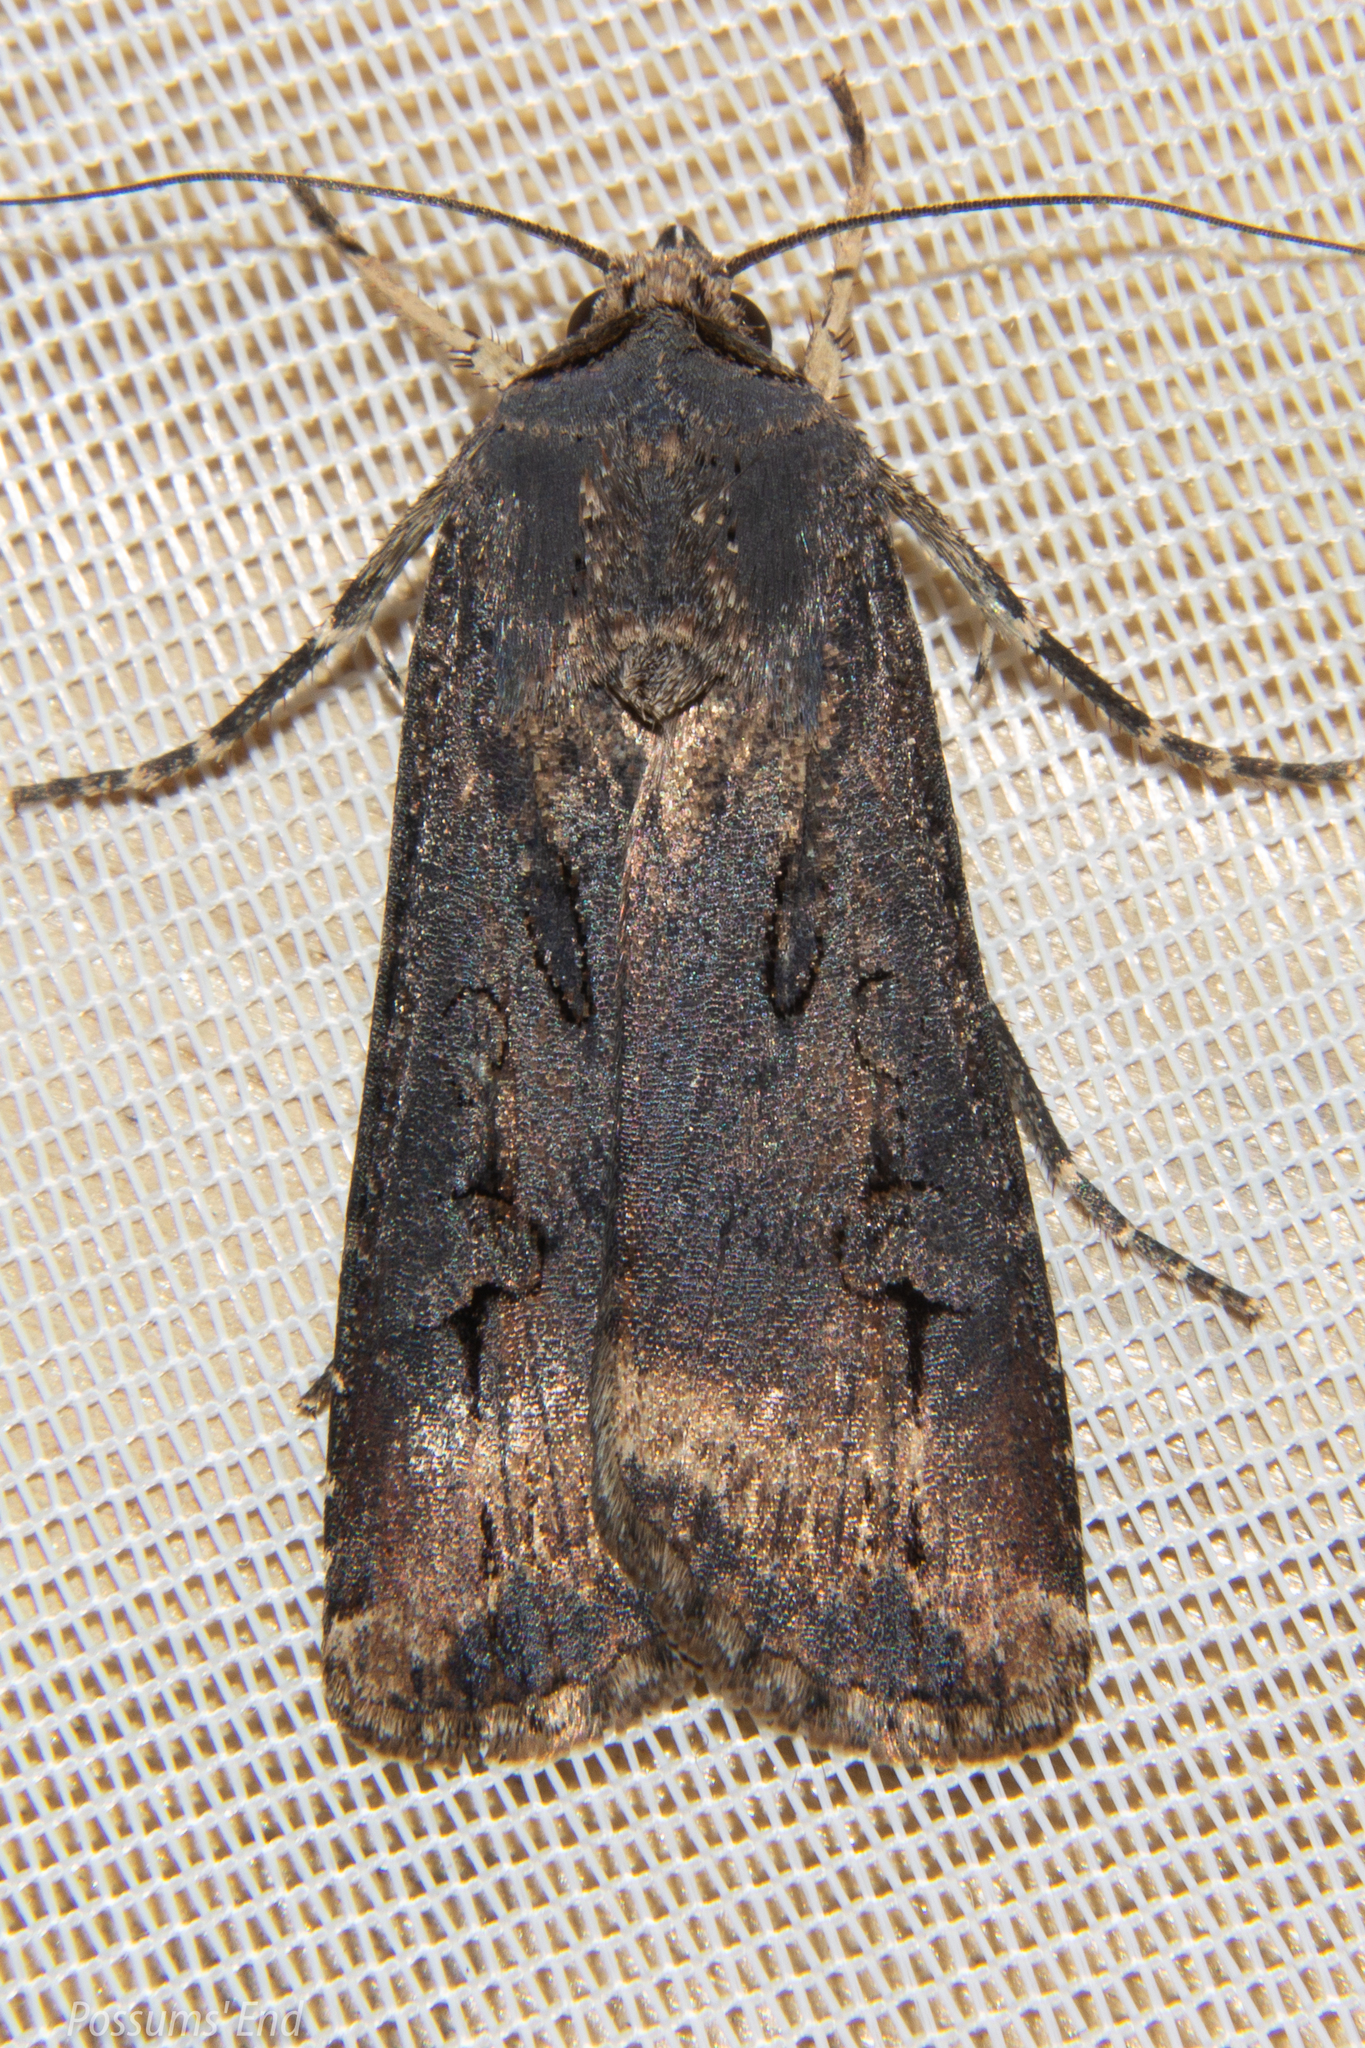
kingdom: Animalia
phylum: Arthropoda
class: Insecta
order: Lepidoptera
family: Noctuidae
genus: Agrotis
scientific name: Agrotis ipsilon
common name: Dark sword-grass
